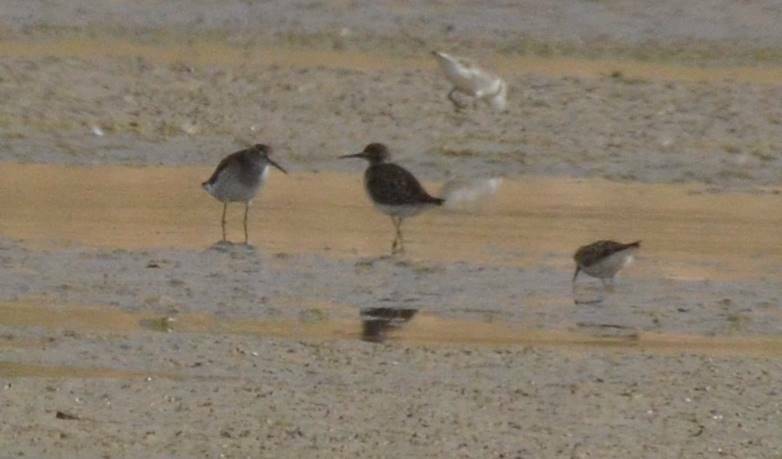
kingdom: Animalia
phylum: Chordata
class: Aves
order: Charadriiformes
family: Scolopacidae
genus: Tringa
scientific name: Tringa glareola
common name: Wood sandpiper
